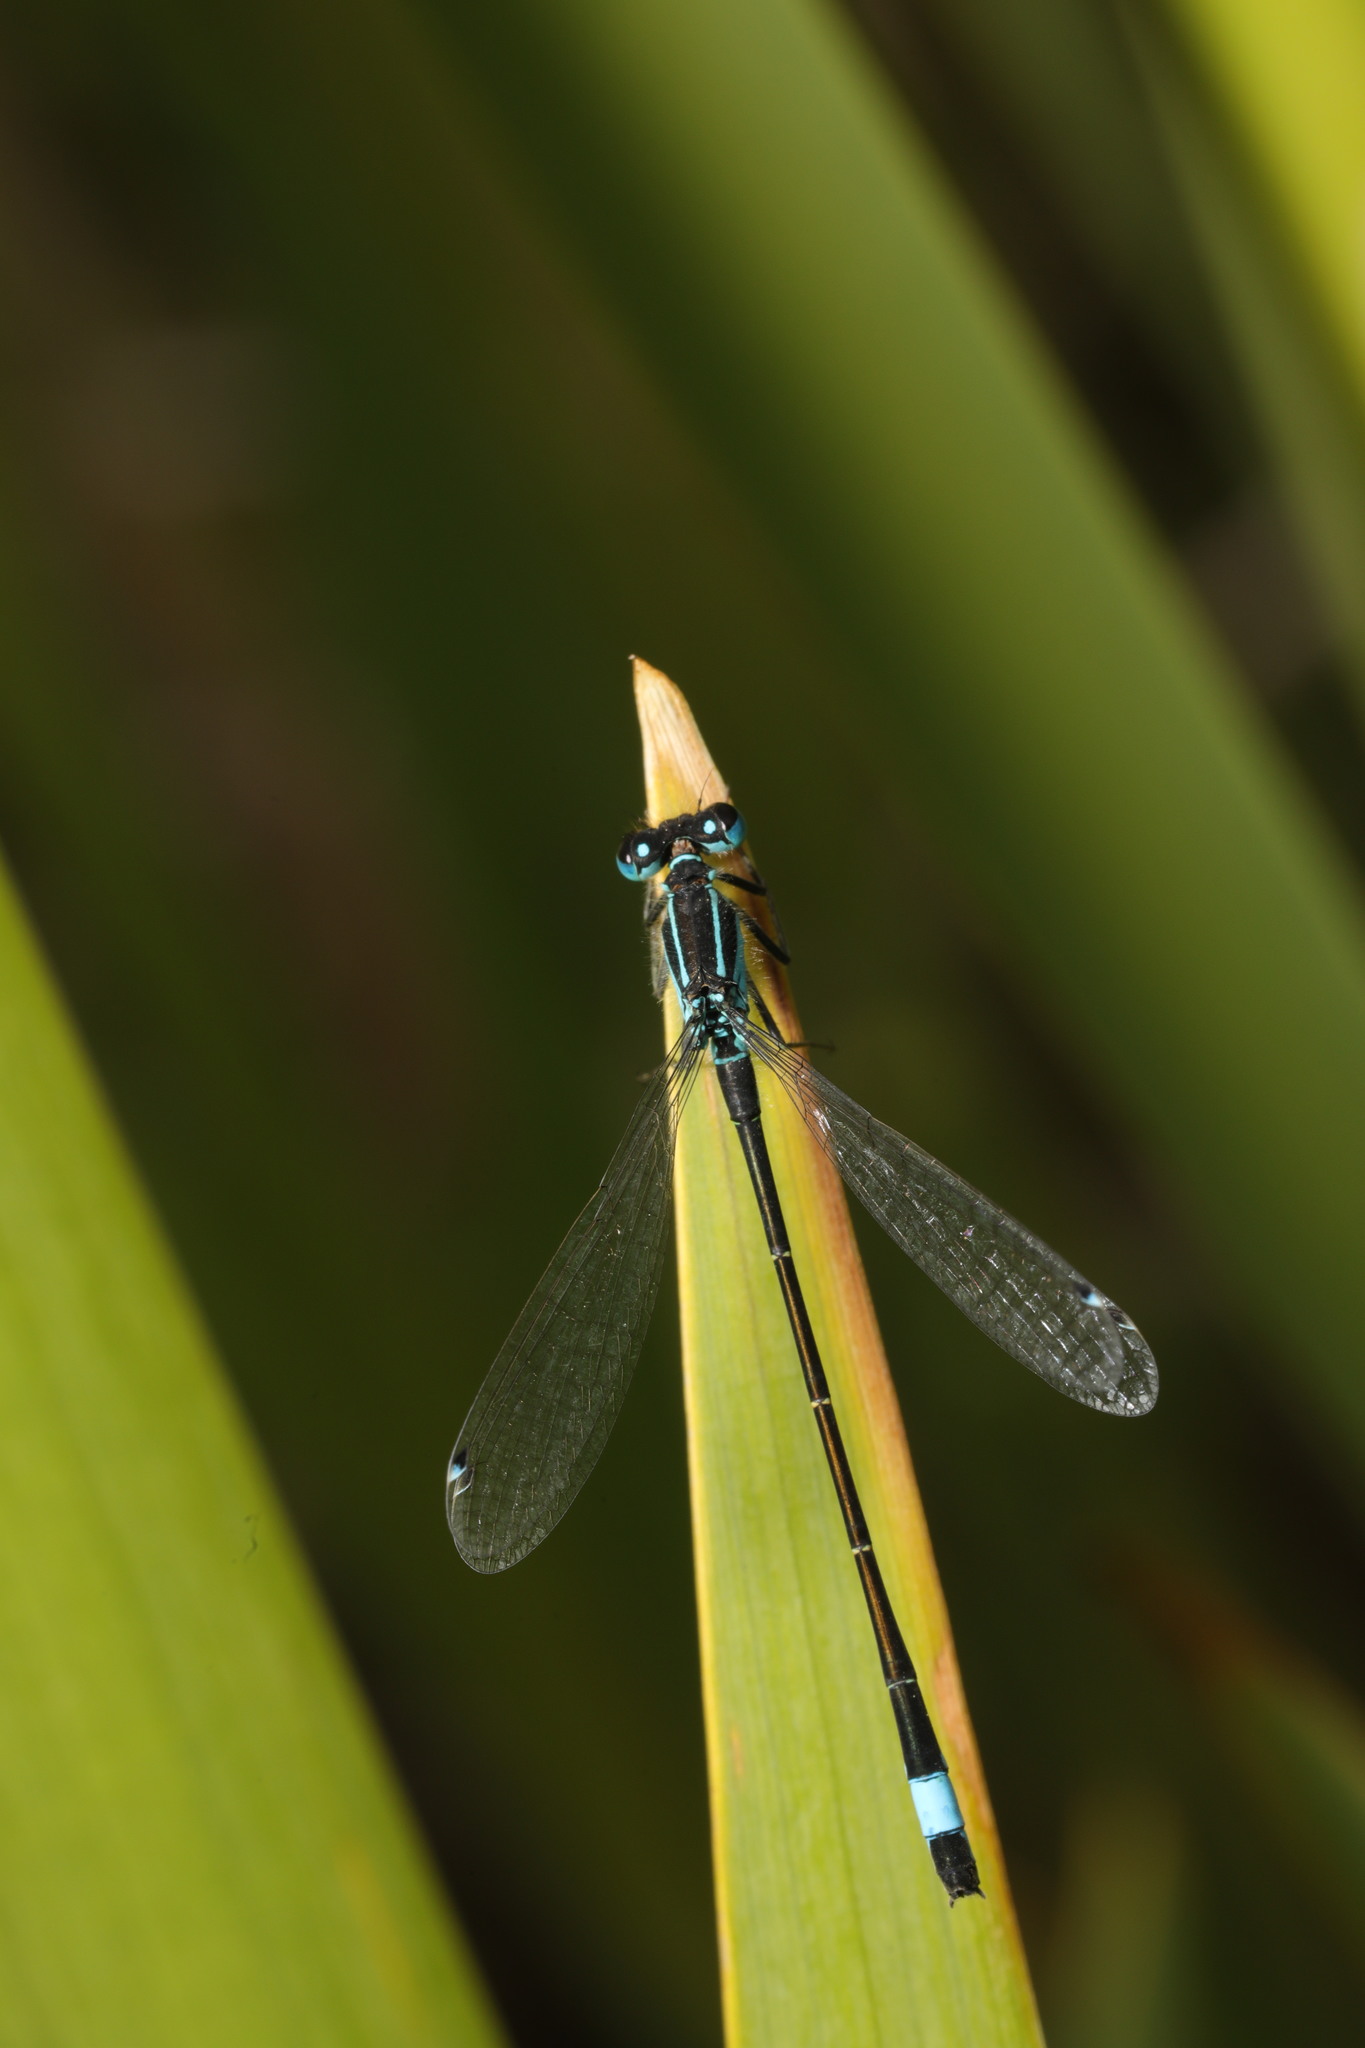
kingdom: Animalia
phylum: Arthropoda
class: Insecta
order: Odonata
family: Coenagrionidae
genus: Ischnura
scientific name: Ischnura elegans
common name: Blue-tailed damselfly
